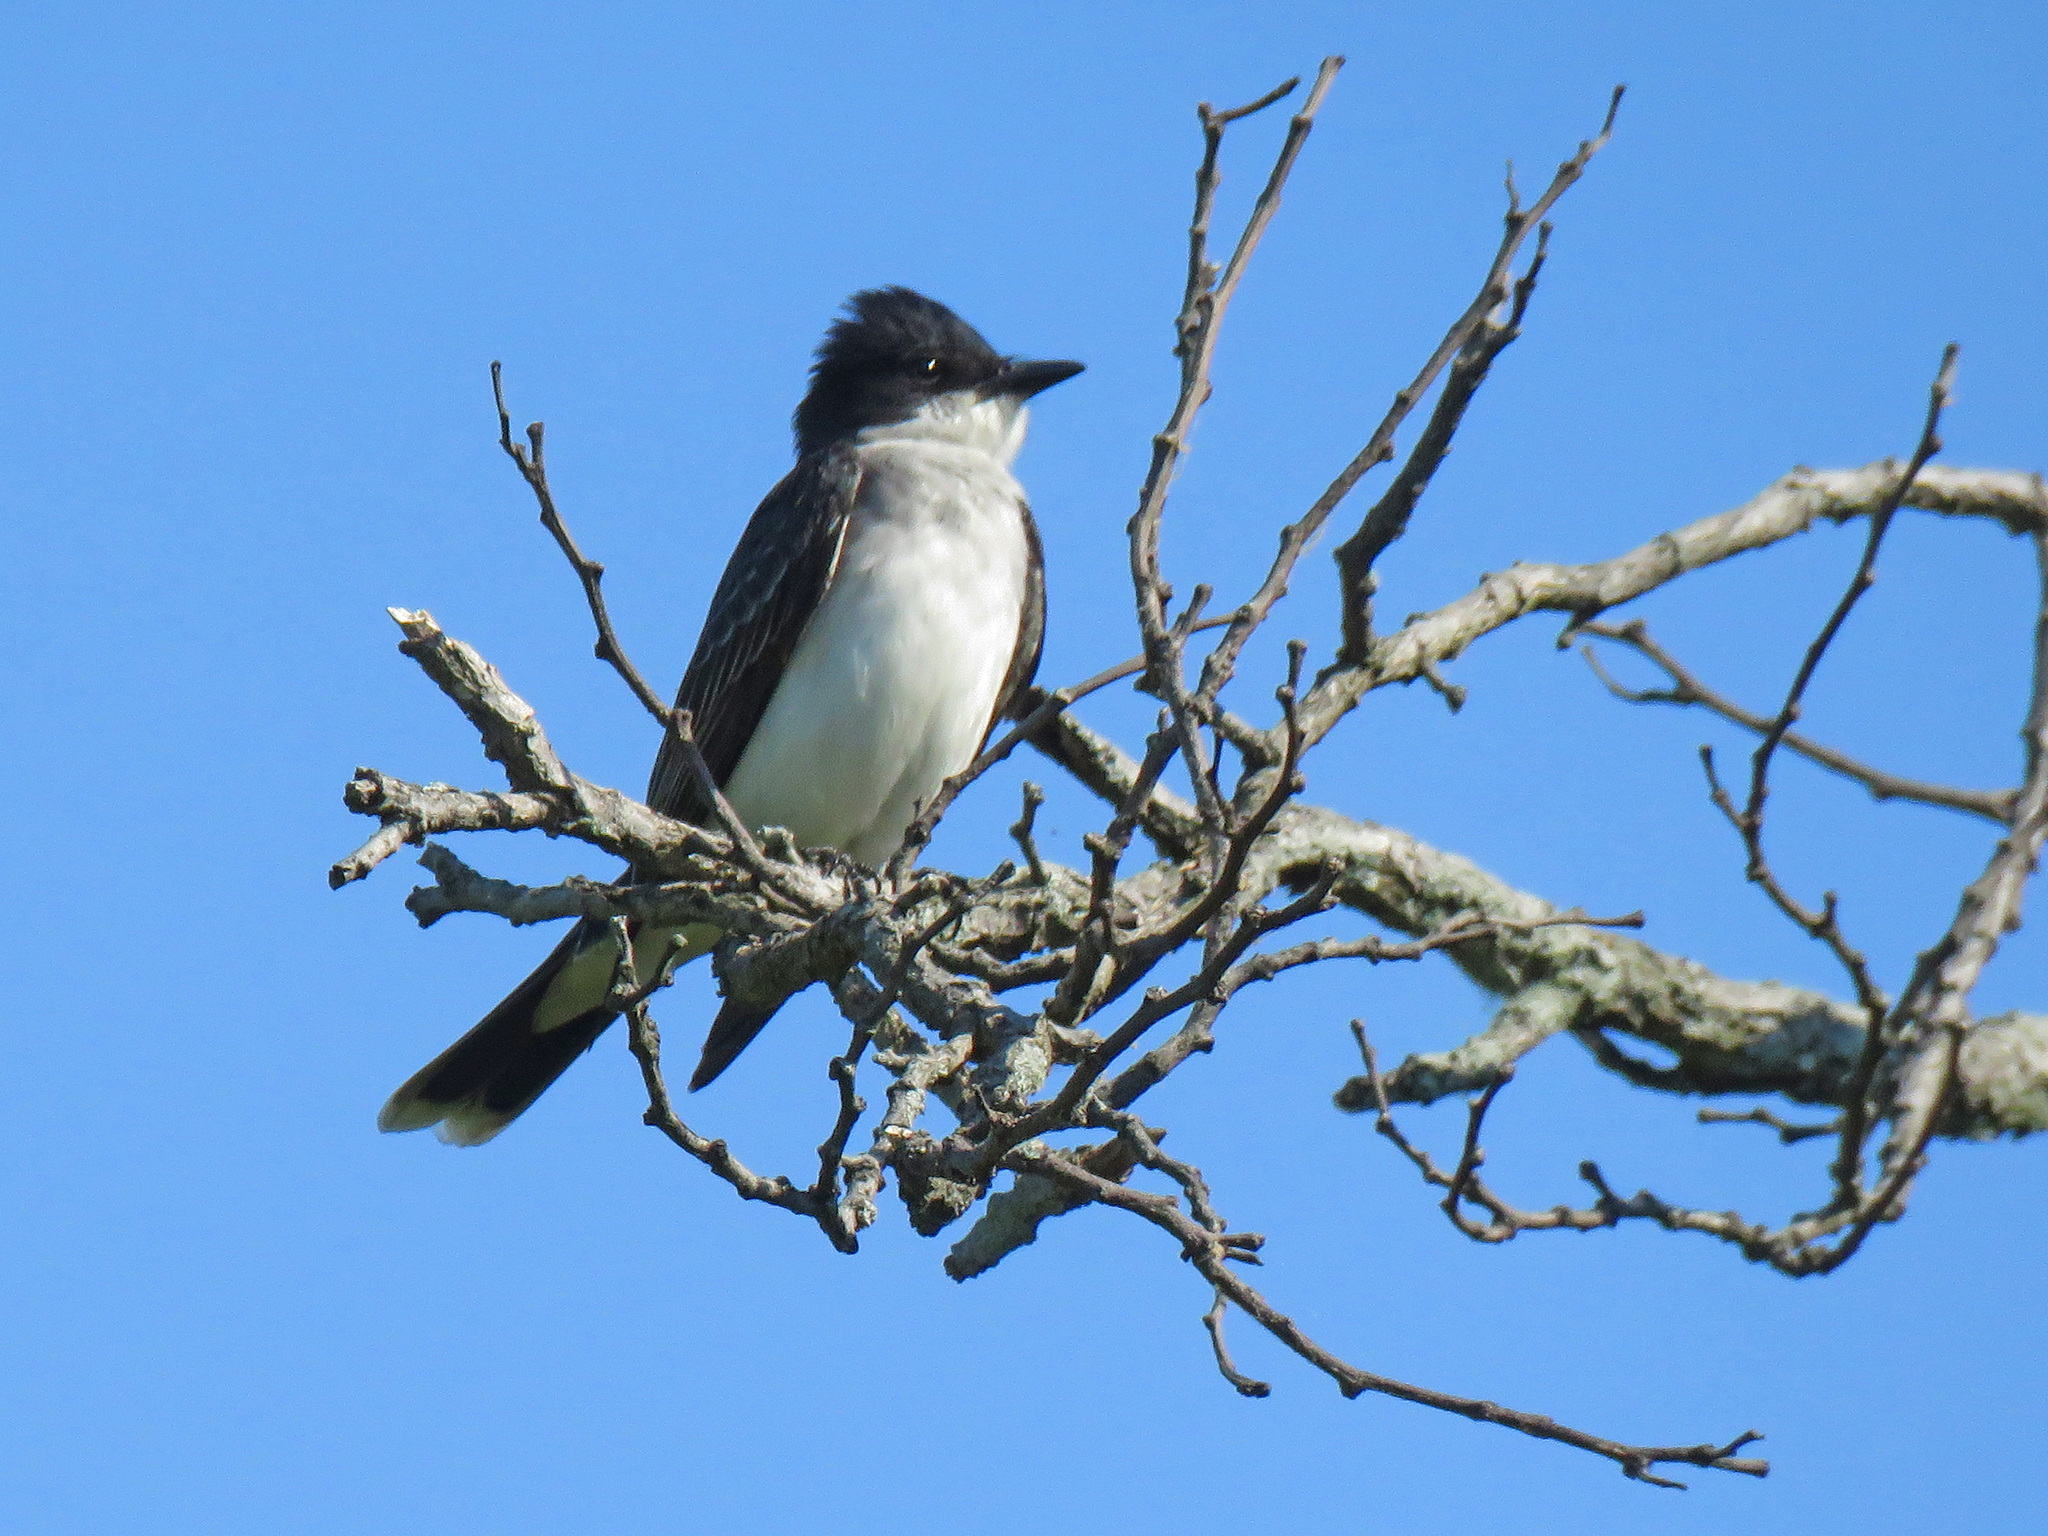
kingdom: Animalia
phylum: Chordata
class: Aves
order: Passeriformes
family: Tyrannidae
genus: Tyrannus
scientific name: Tyrannus tyrannus
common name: Eastern kingbird
